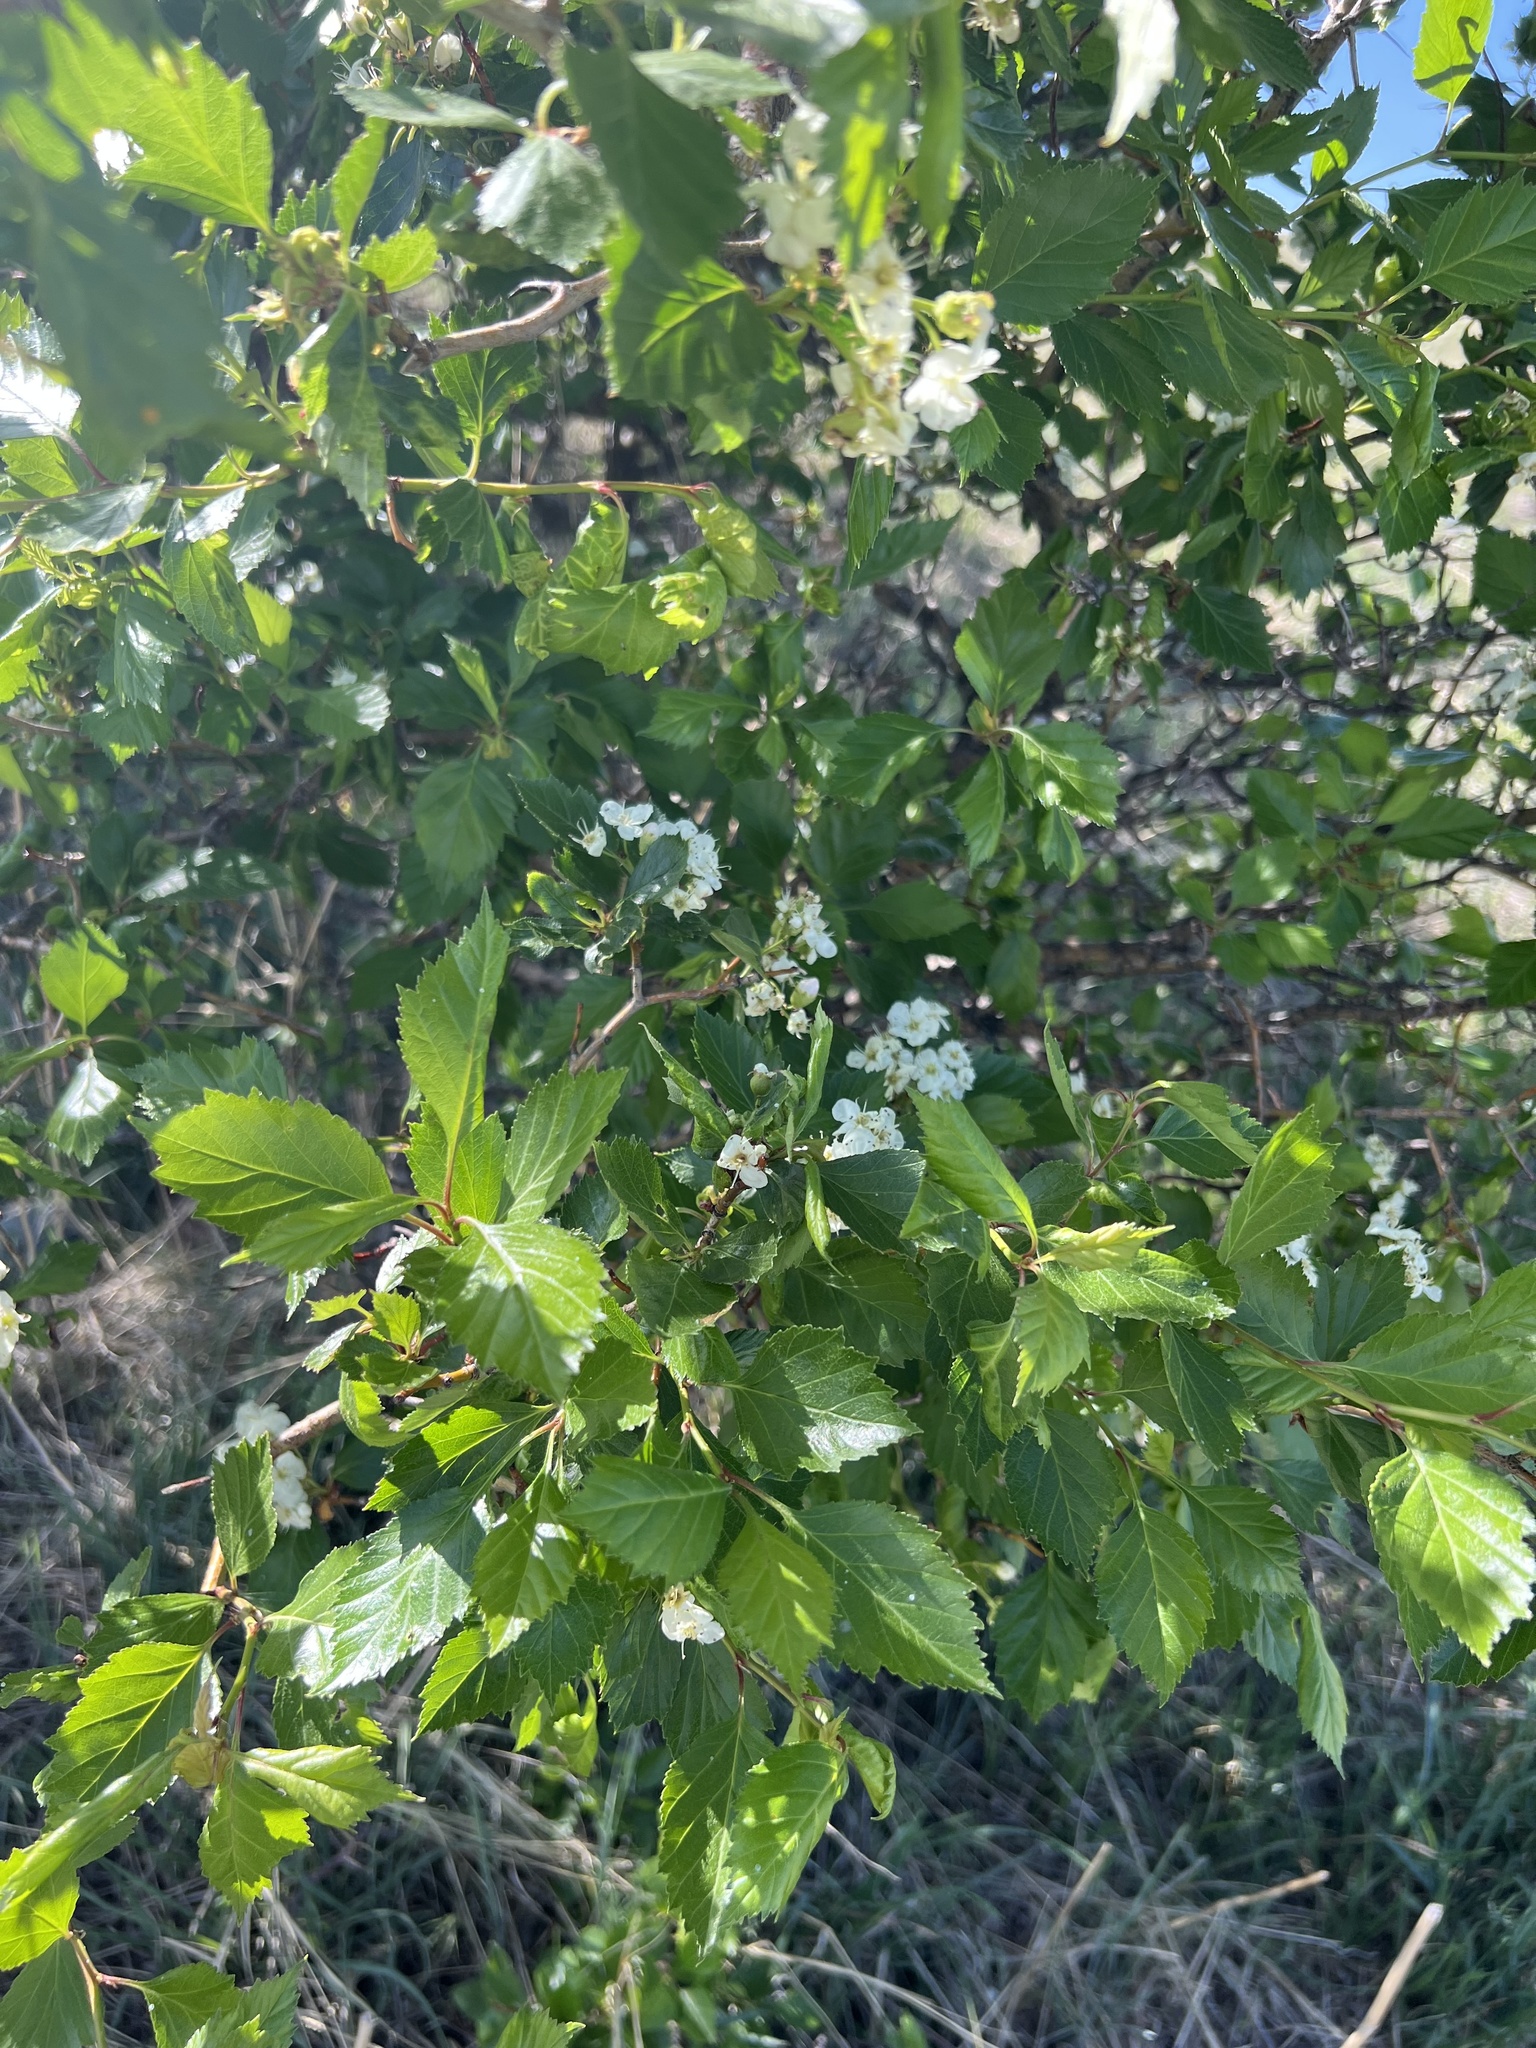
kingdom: Plantae
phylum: Tracheophyta
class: Magnoliopsida
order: Rosales
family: Rosaceae
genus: Crataegus
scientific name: Crataegus succulenta
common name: Fleshy hawthorn
